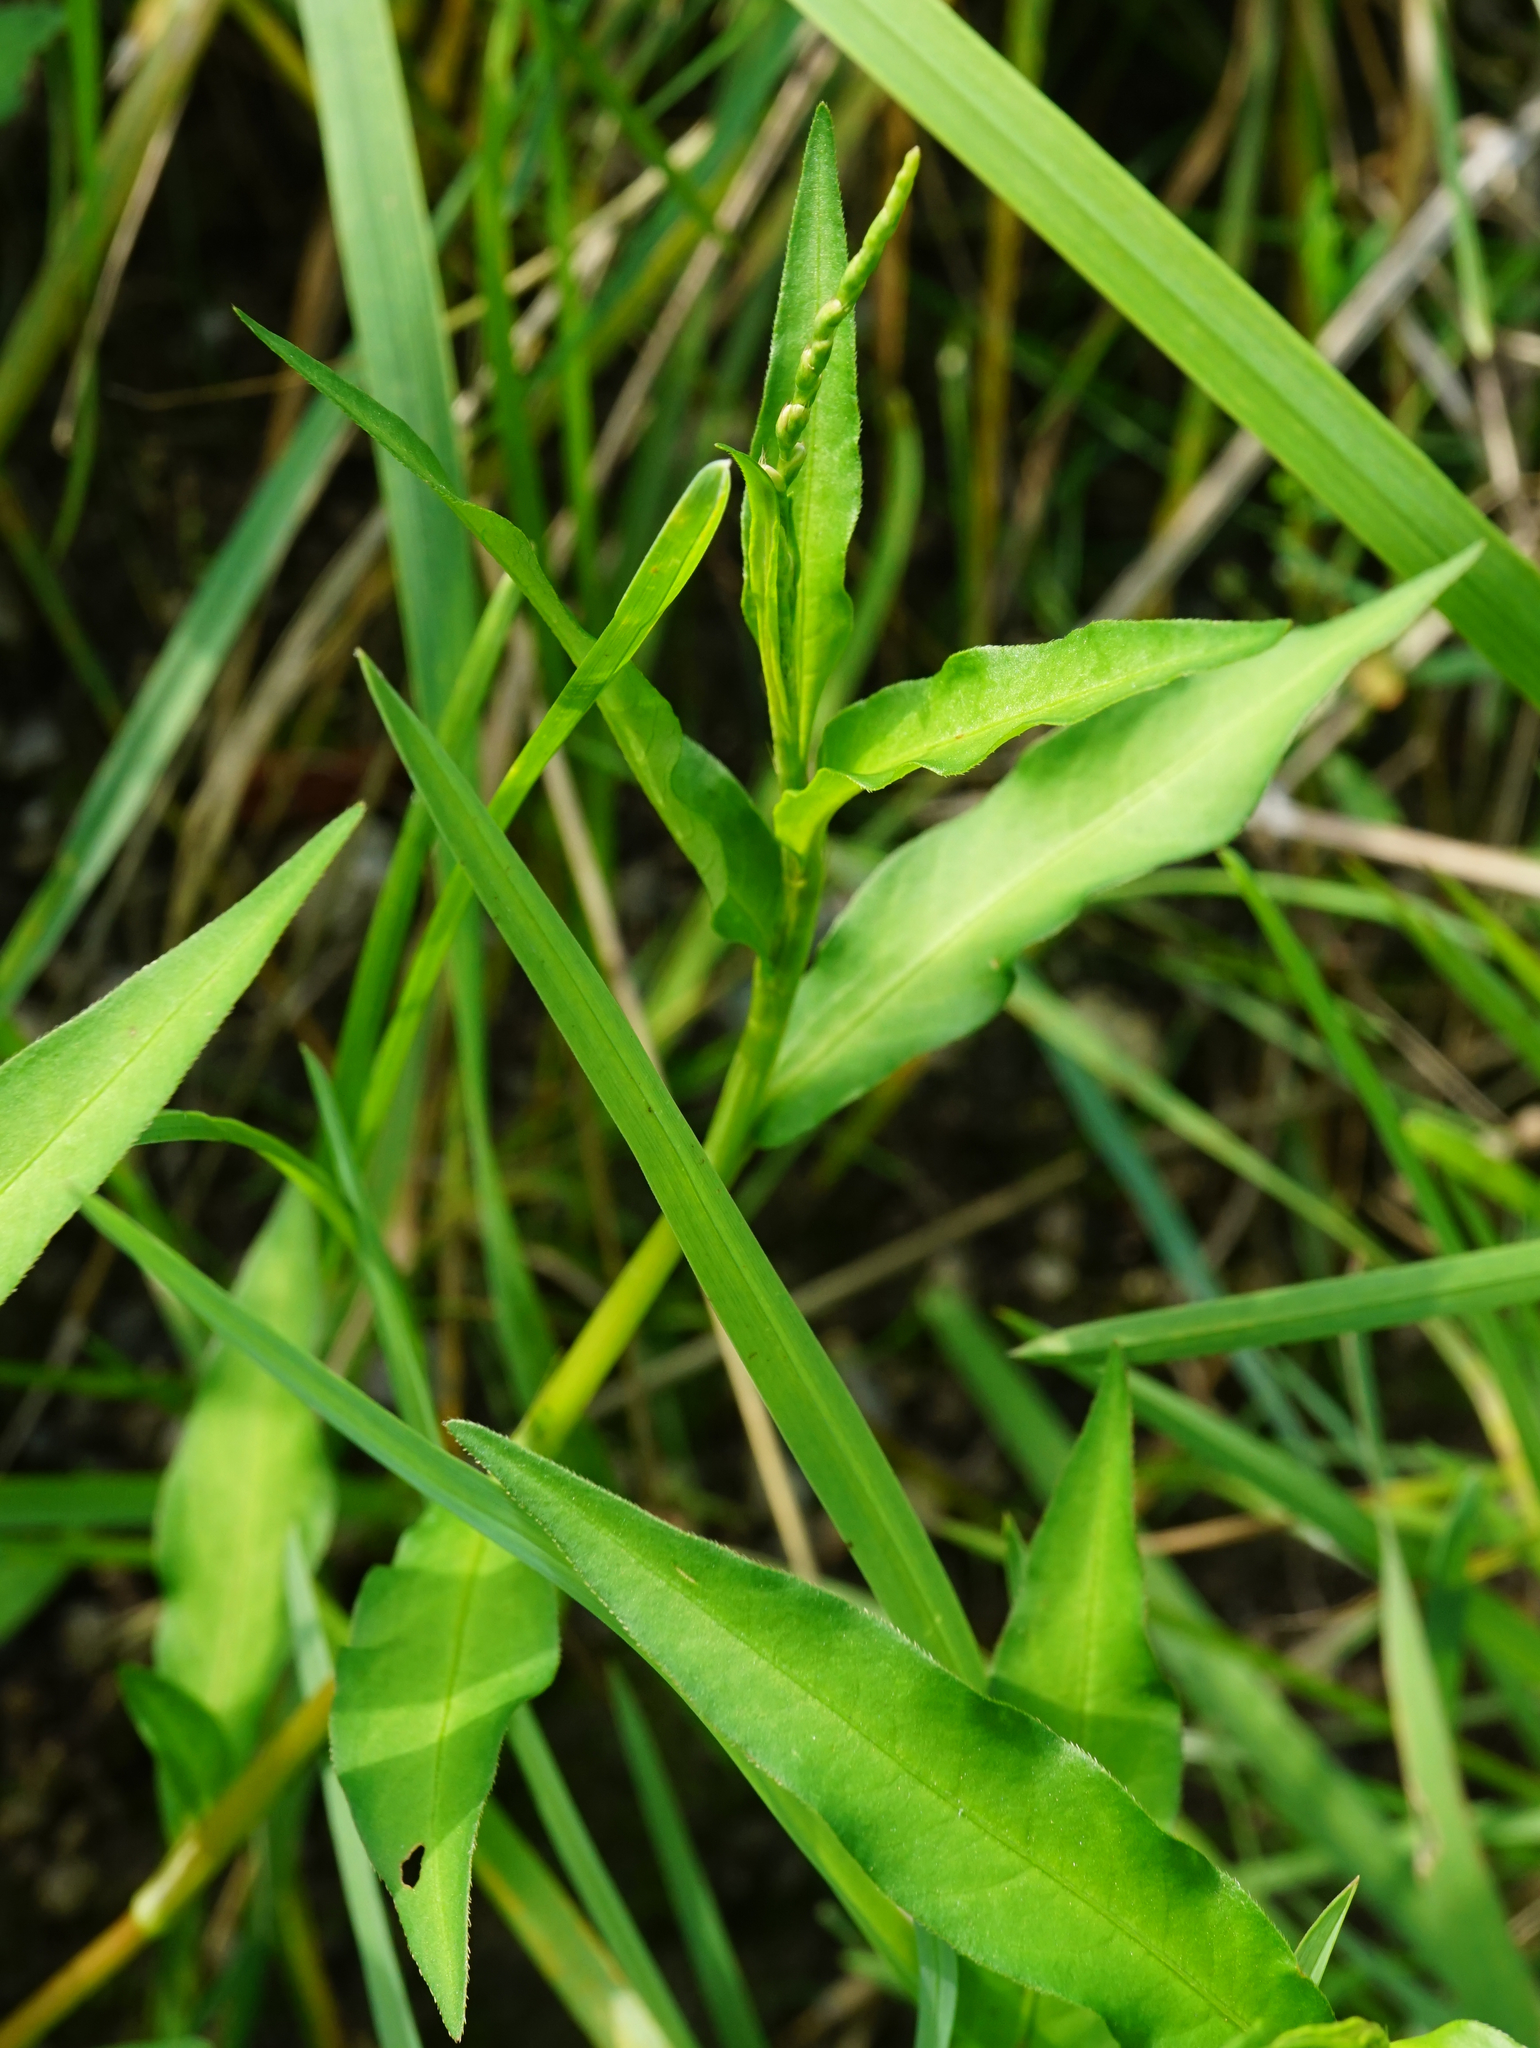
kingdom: Plantae
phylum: Tracheophyta
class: Magnoliopsida
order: Caryophyllales
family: Polygonaceae
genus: Persicaria
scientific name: Persicaria mitis
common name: Tasteless water-pepper
